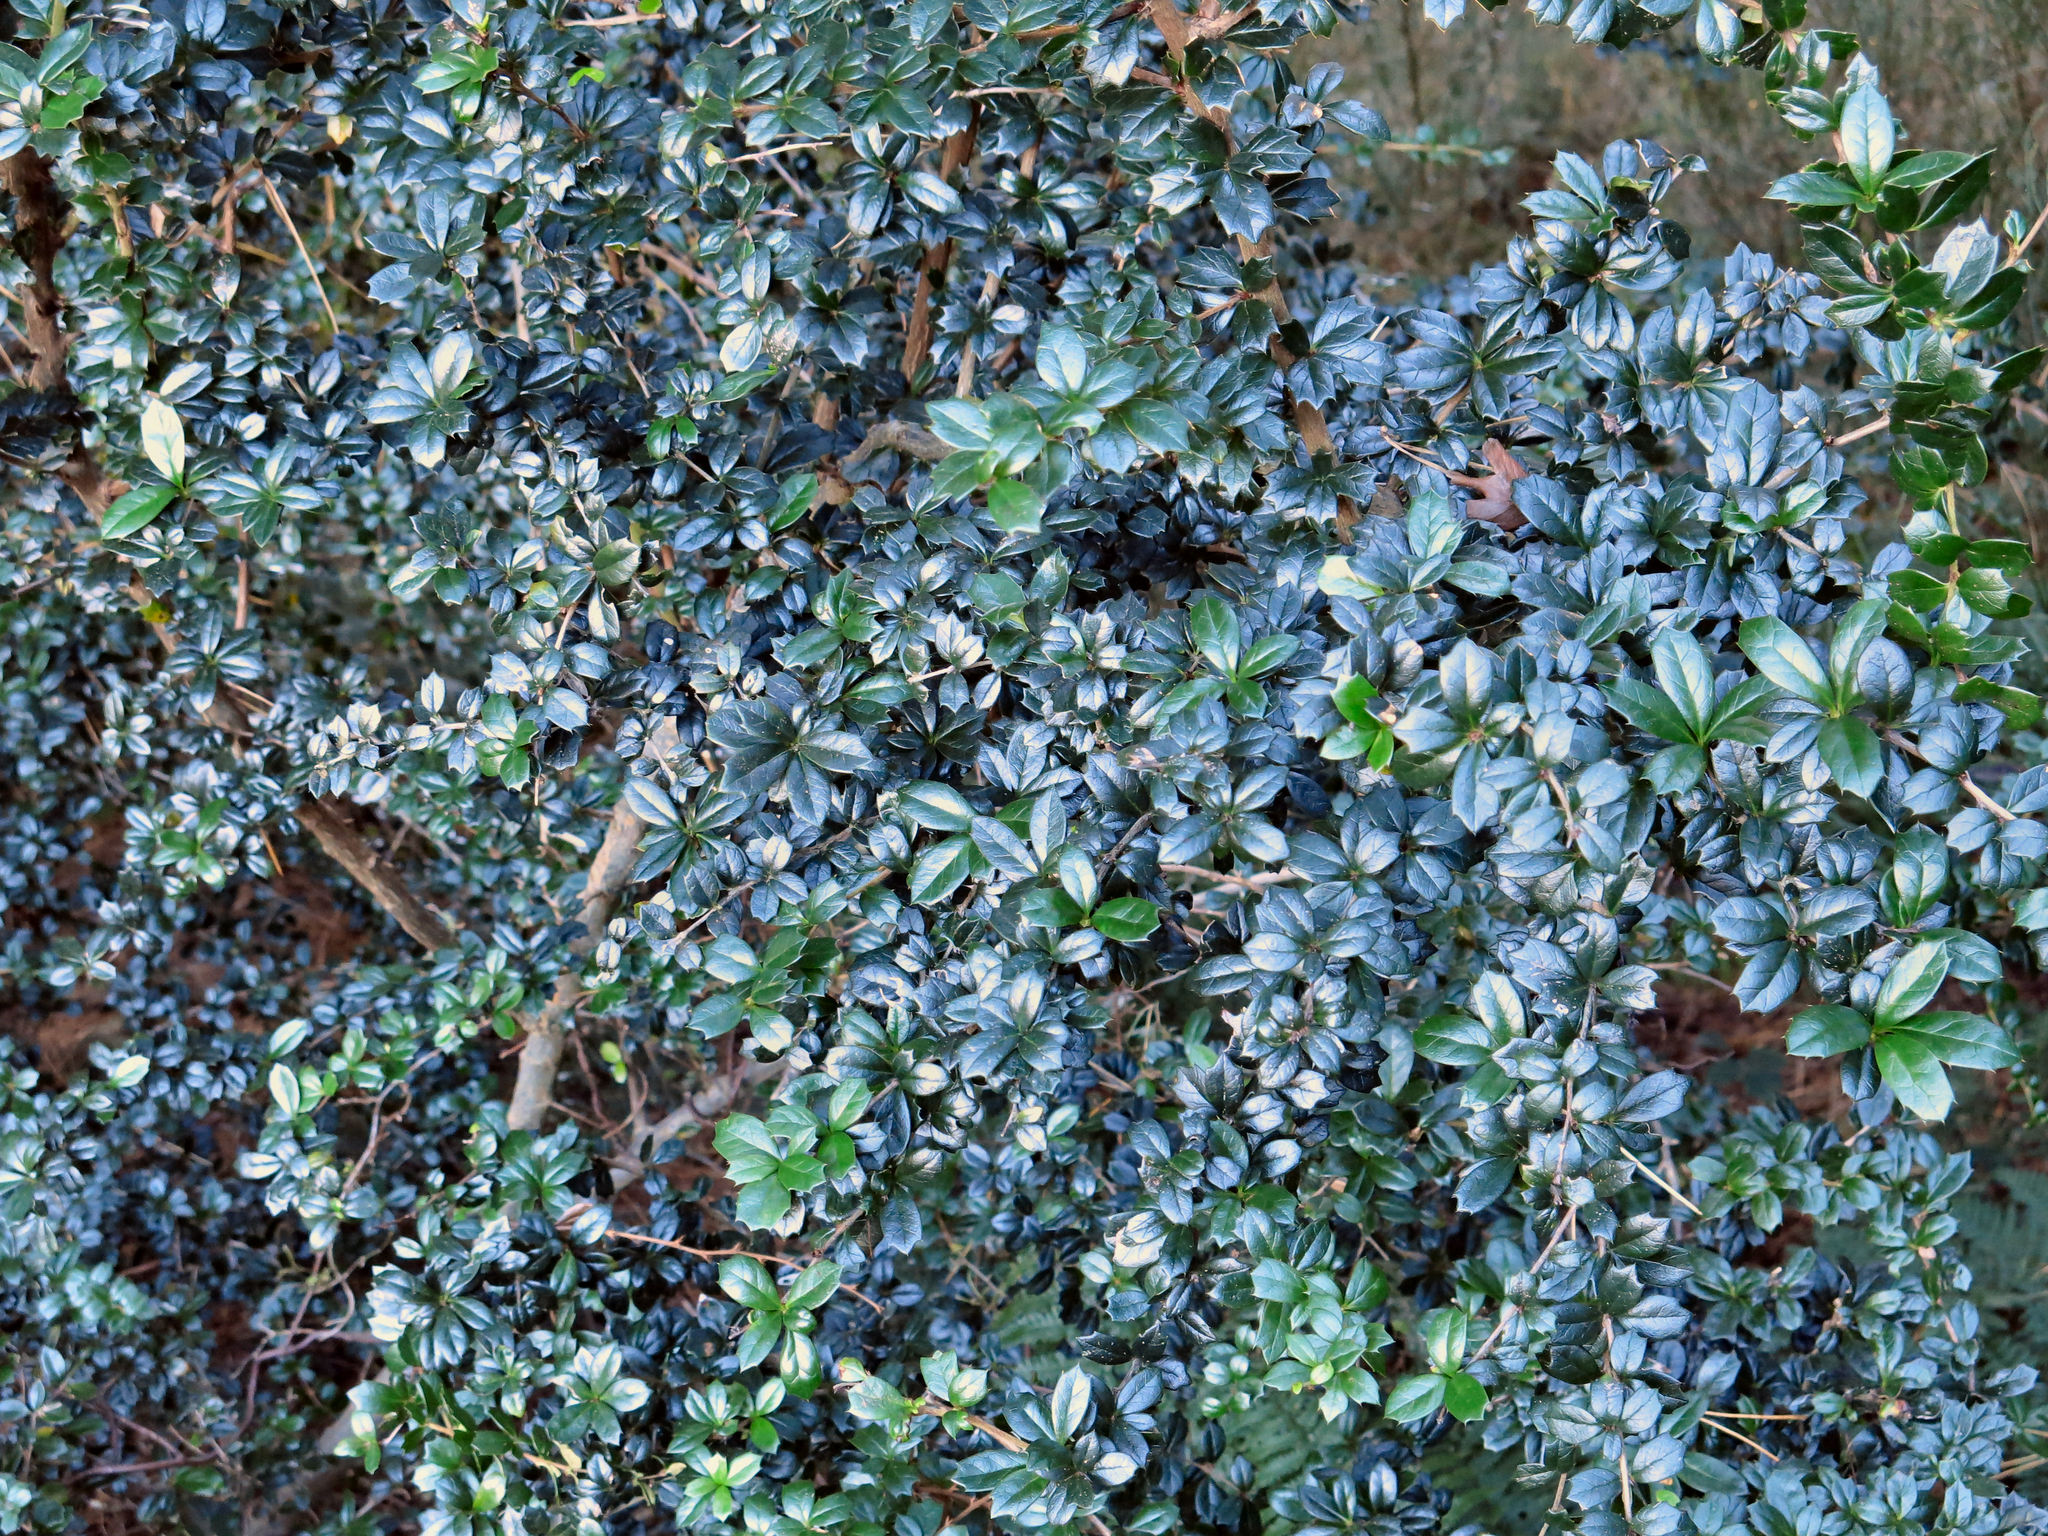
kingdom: Plantae
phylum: Tracheophyta
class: Magnoliopsida
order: Ranunculales
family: Berberidaceae
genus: Berberis
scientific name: Berberis darwinii
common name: Darwin's barberry
